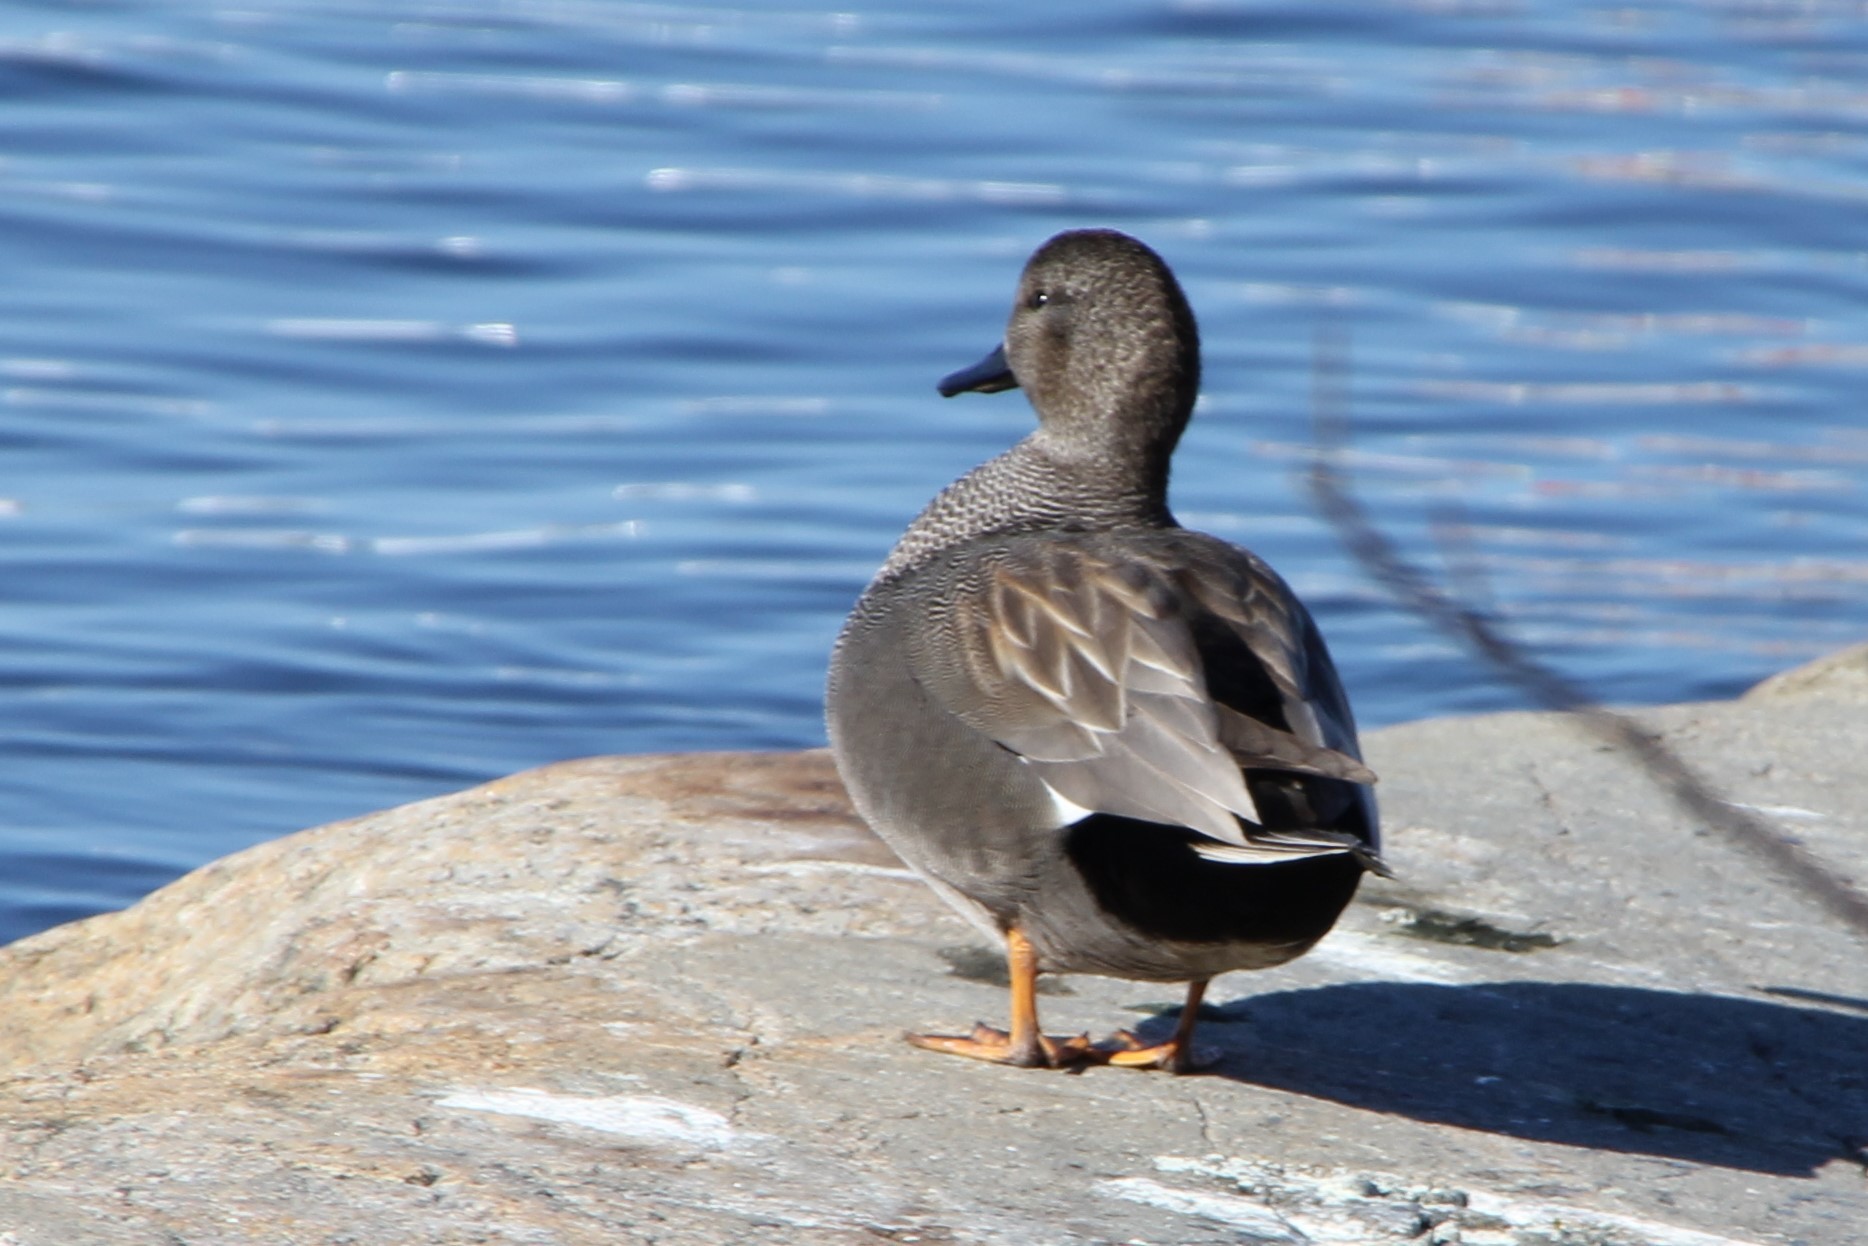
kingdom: Animalia
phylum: Chordata
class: Aves
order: Anseriformes
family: Anatidae
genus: Mareca
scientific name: Mareca strepera
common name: Gadwall
